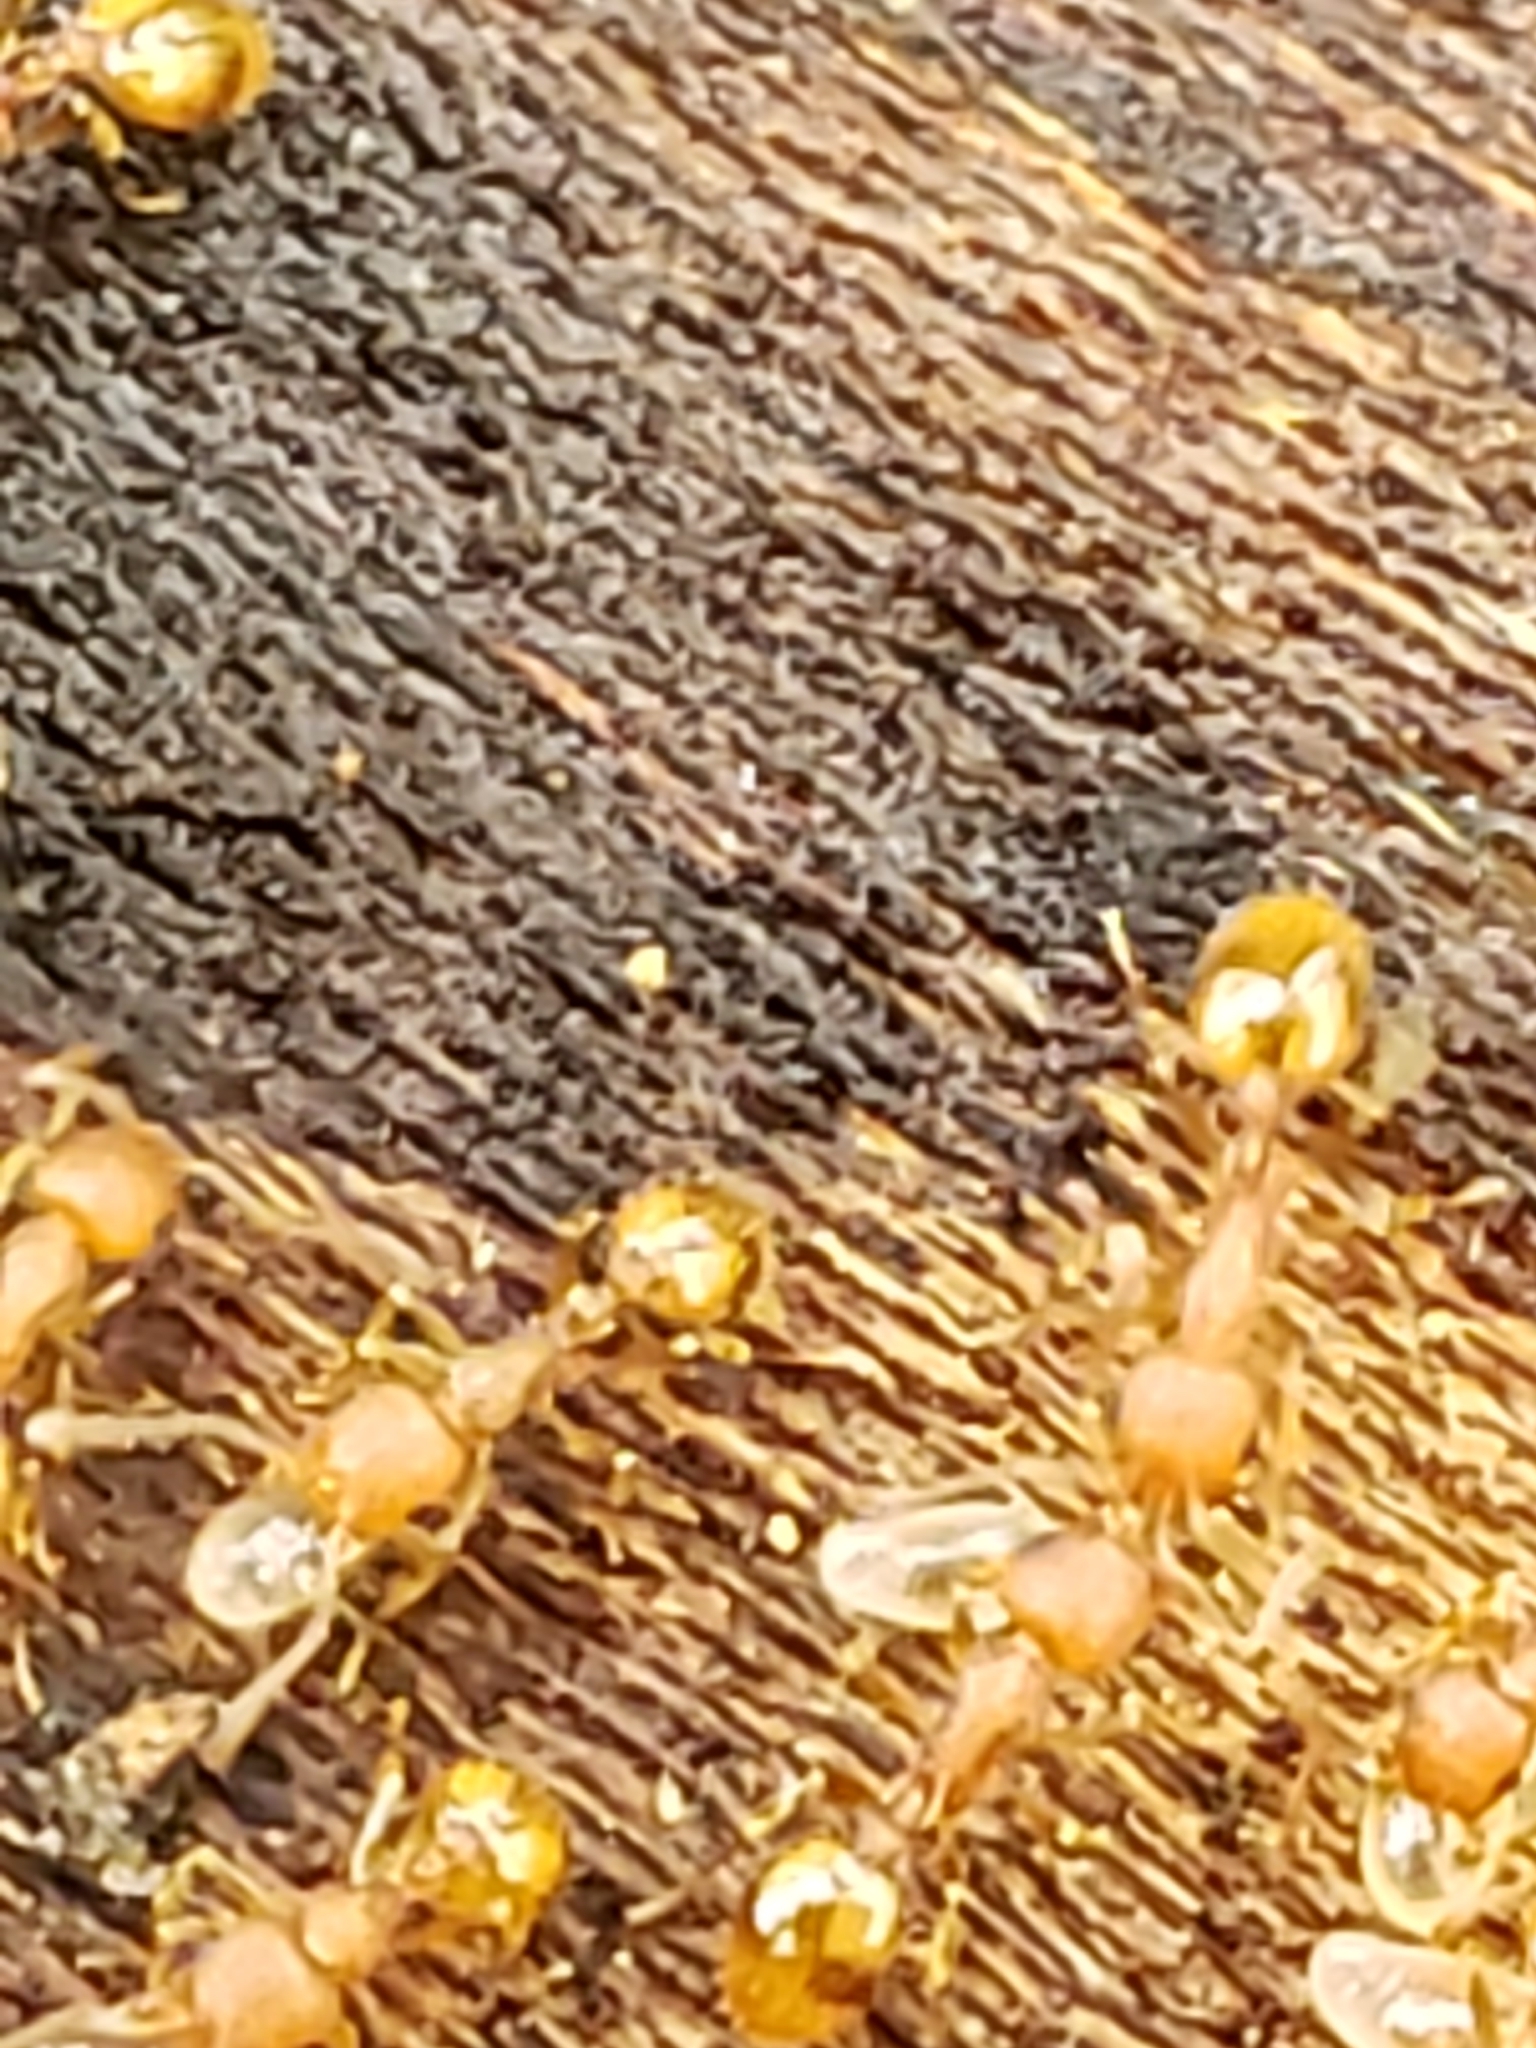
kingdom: Animalia
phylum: Arthropoda
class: Insecta
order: Hymenoptera
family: Formicidae
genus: Temnothorax
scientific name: Temnothorax curvispinosus
